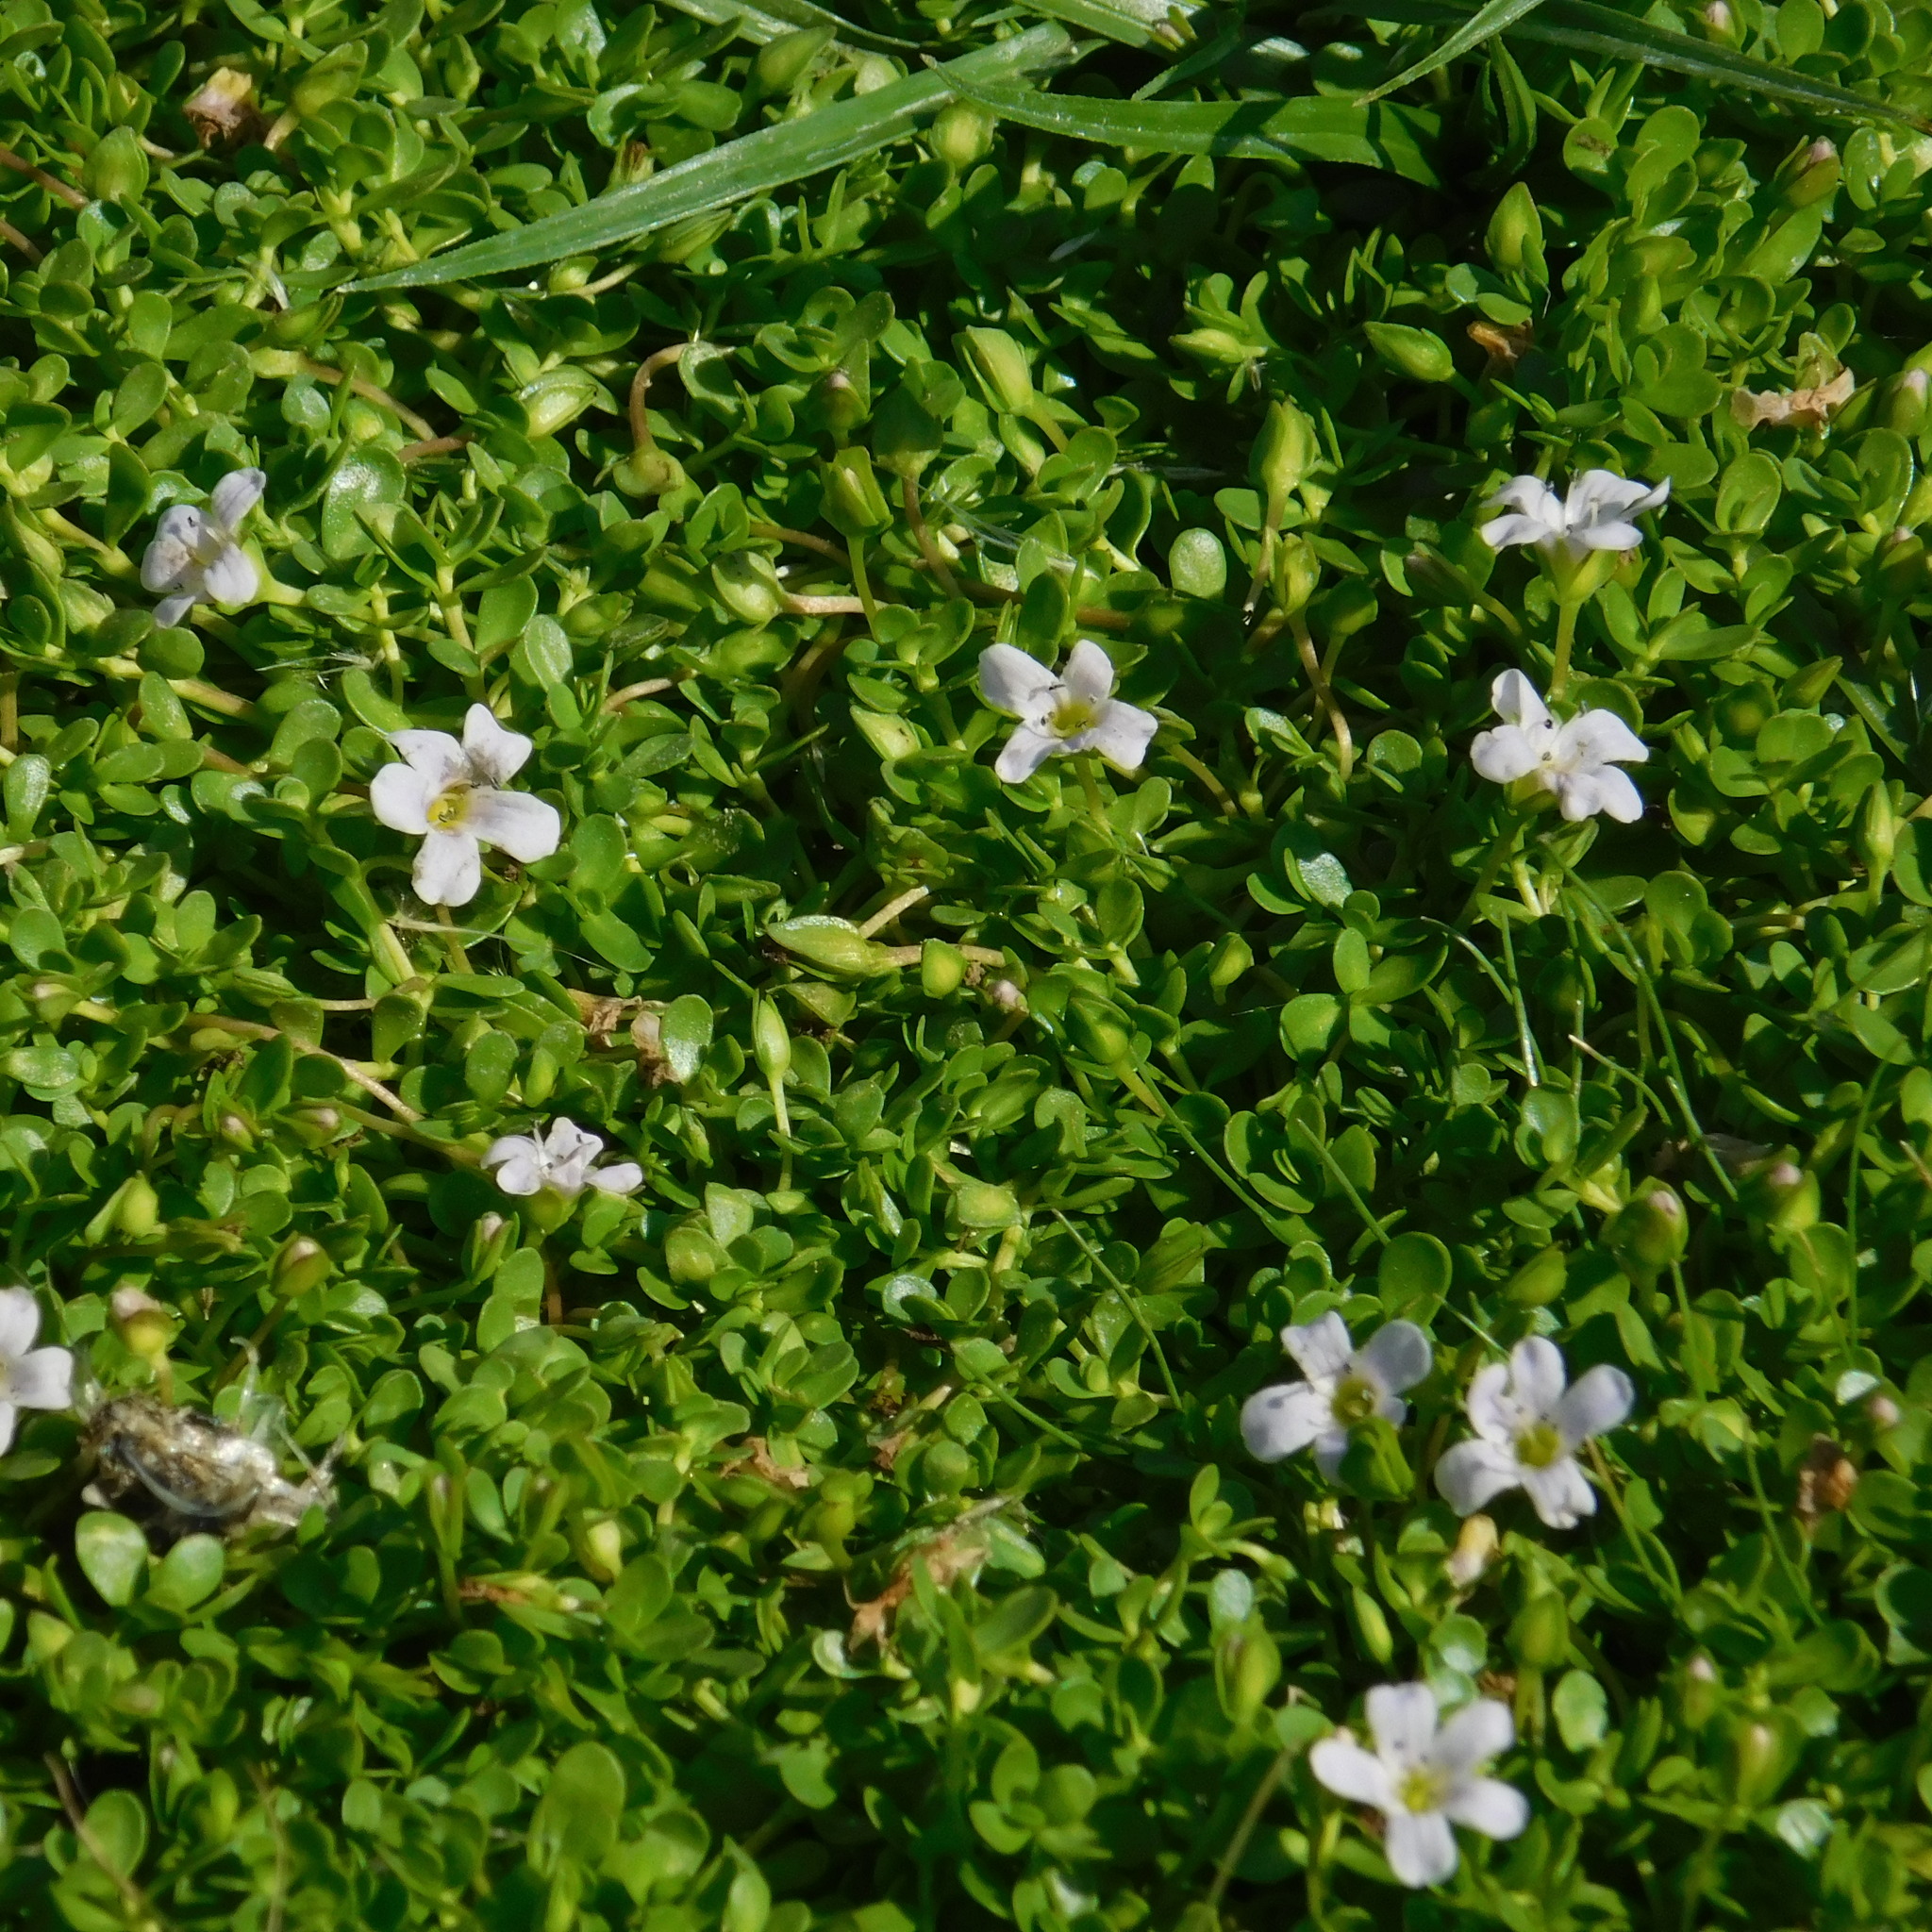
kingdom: Plantae
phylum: Tracheophyta
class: Magnoliopsida
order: Lamiales
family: Plantaginaceae
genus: Bacopa
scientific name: Bacopa monnieri
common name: Indian-pennywort
